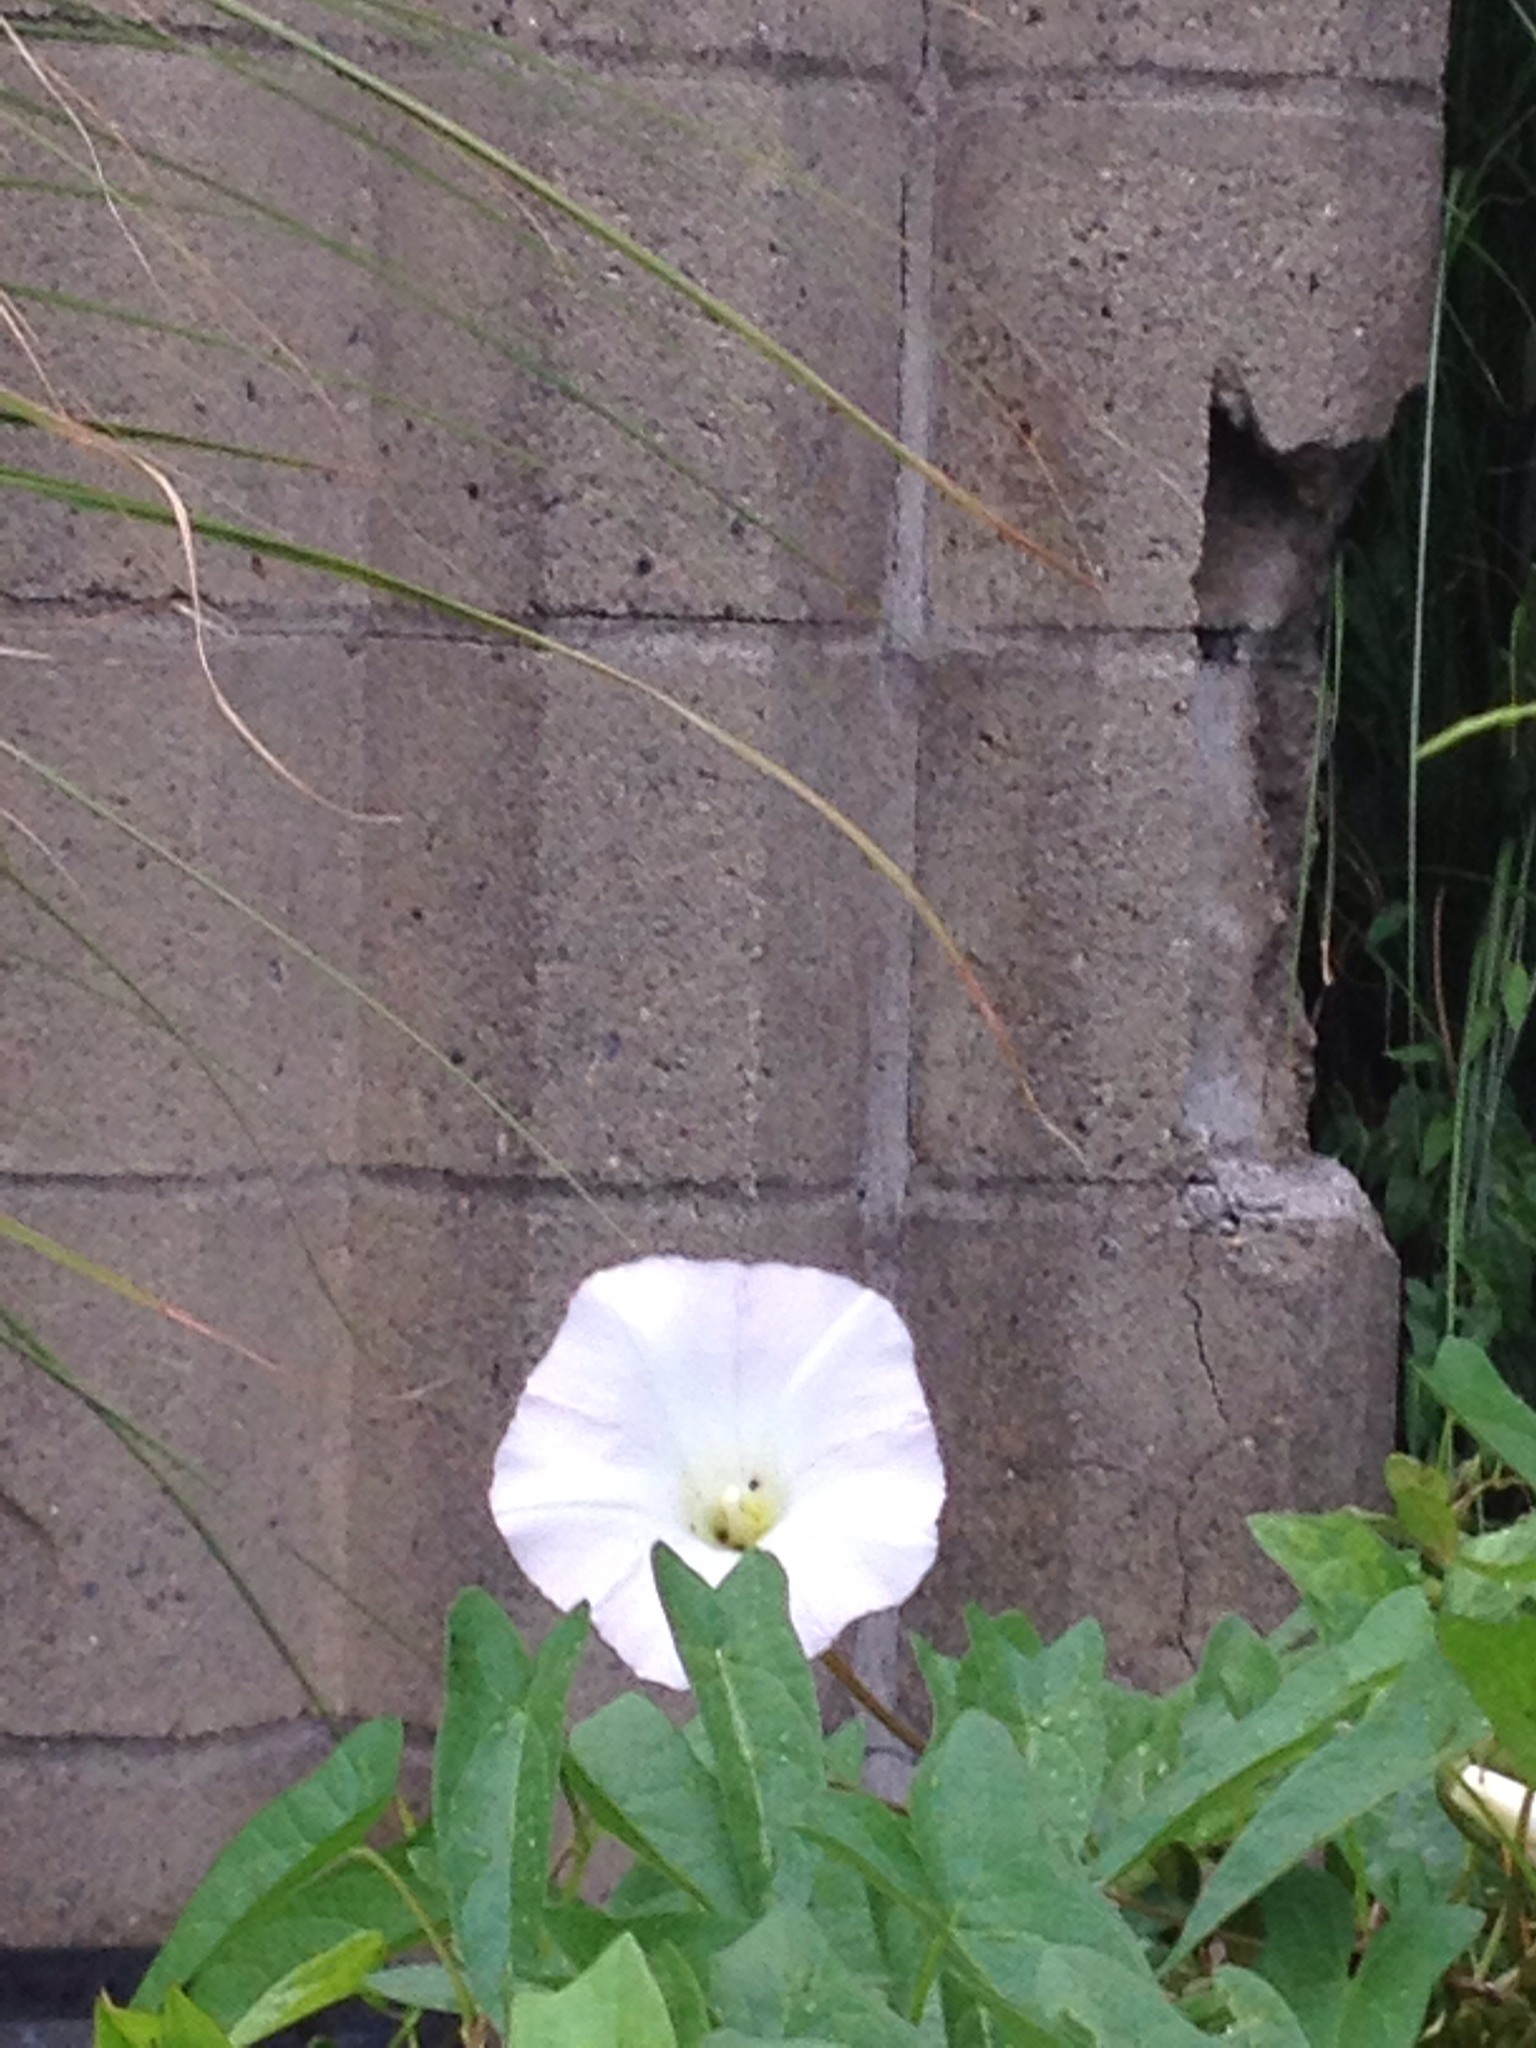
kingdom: Plantae
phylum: Tracheophyta
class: Magnoliopsida
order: Solanales
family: Convolvulaceae
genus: Calystegia
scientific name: Calystegia sepium
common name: Hedge bindweed
